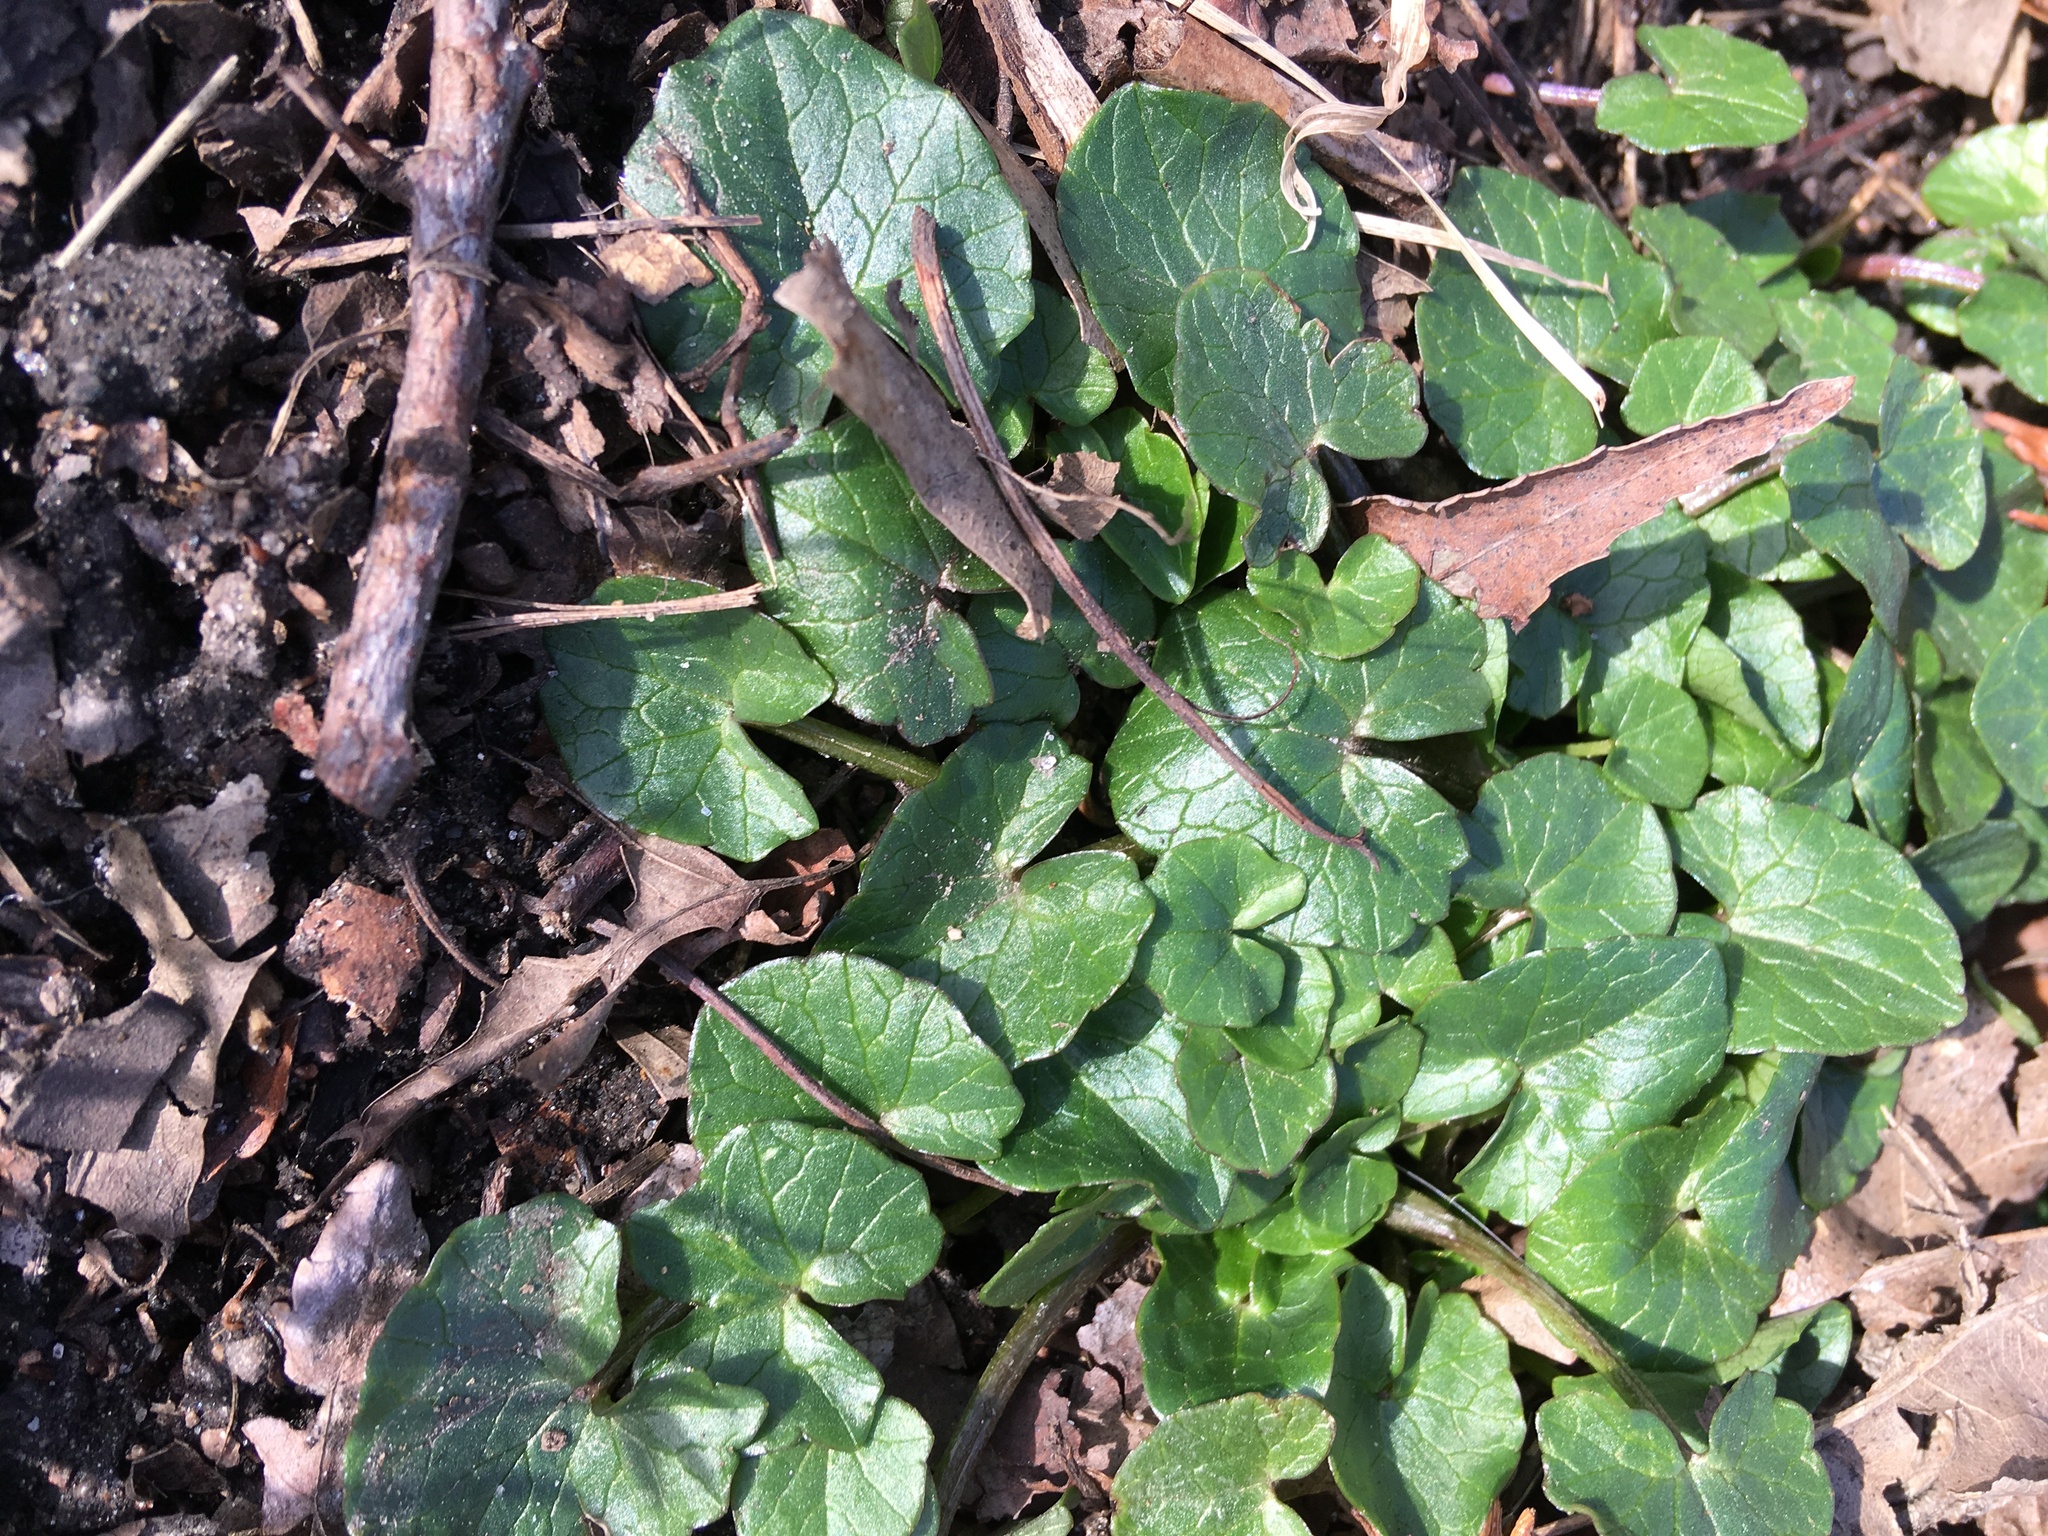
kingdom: Plantae
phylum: Tracheophyta
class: Magnoliopsida
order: Ranunculales
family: Ranunculaceae
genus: Ficaria
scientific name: Ficaria verna
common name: Lesser celandine
